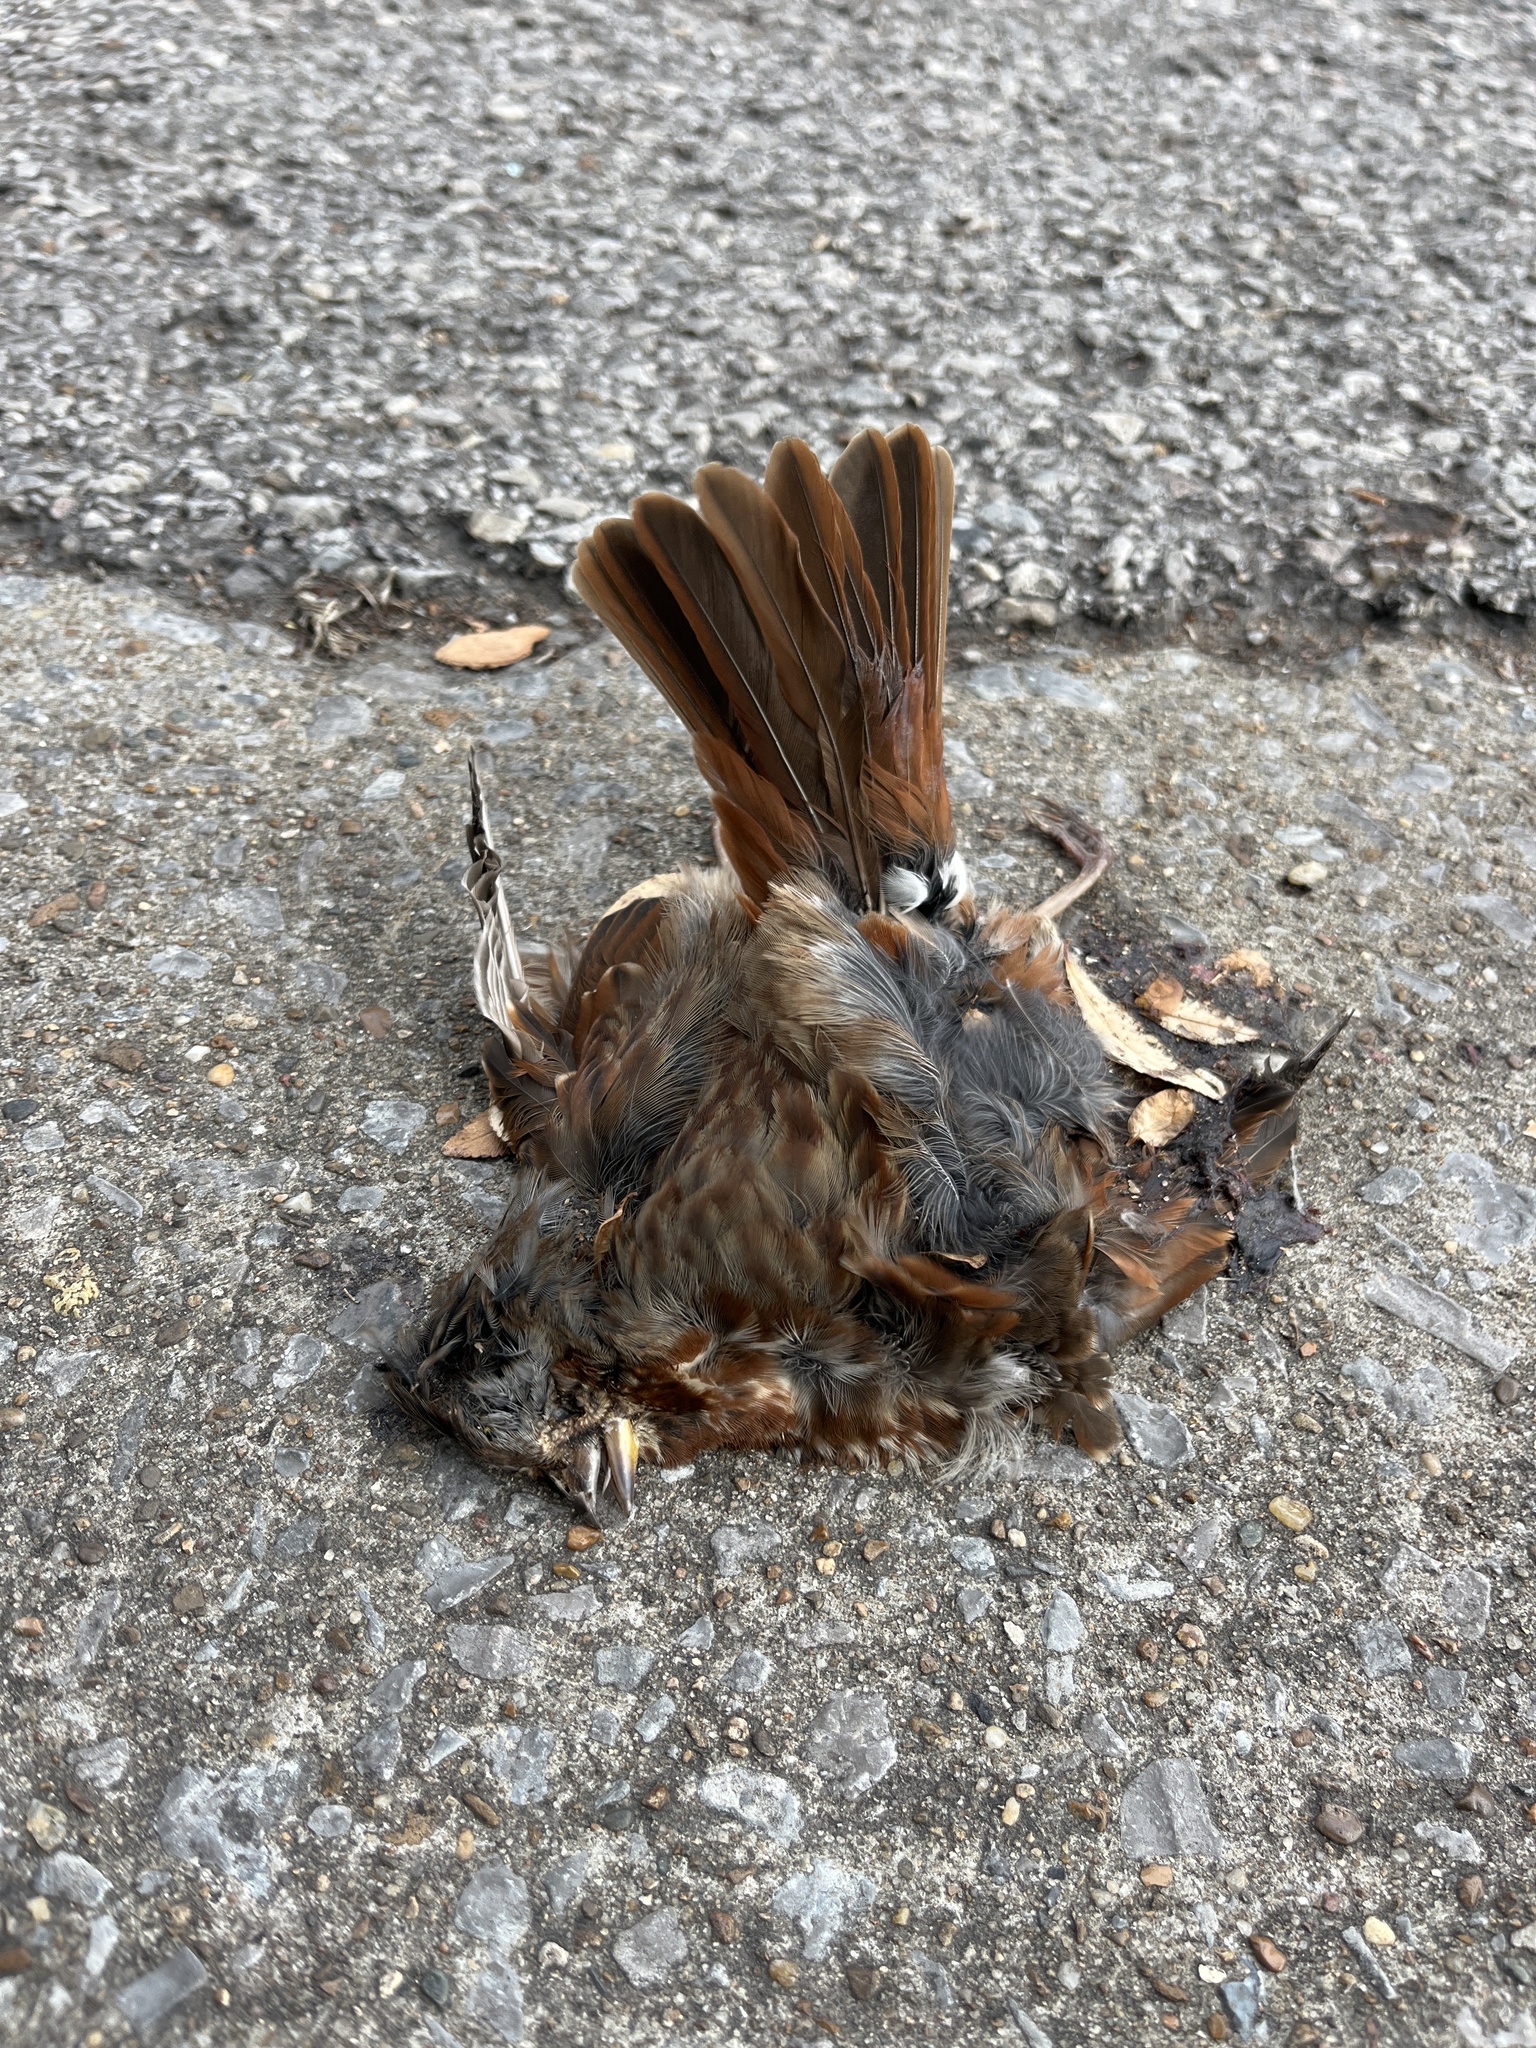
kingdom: Animalia
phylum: Chordata
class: Aves
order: Passeriformes
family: Passerellidae
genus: Passerella
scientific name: Passerella iliaca
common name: Fox sparrow
